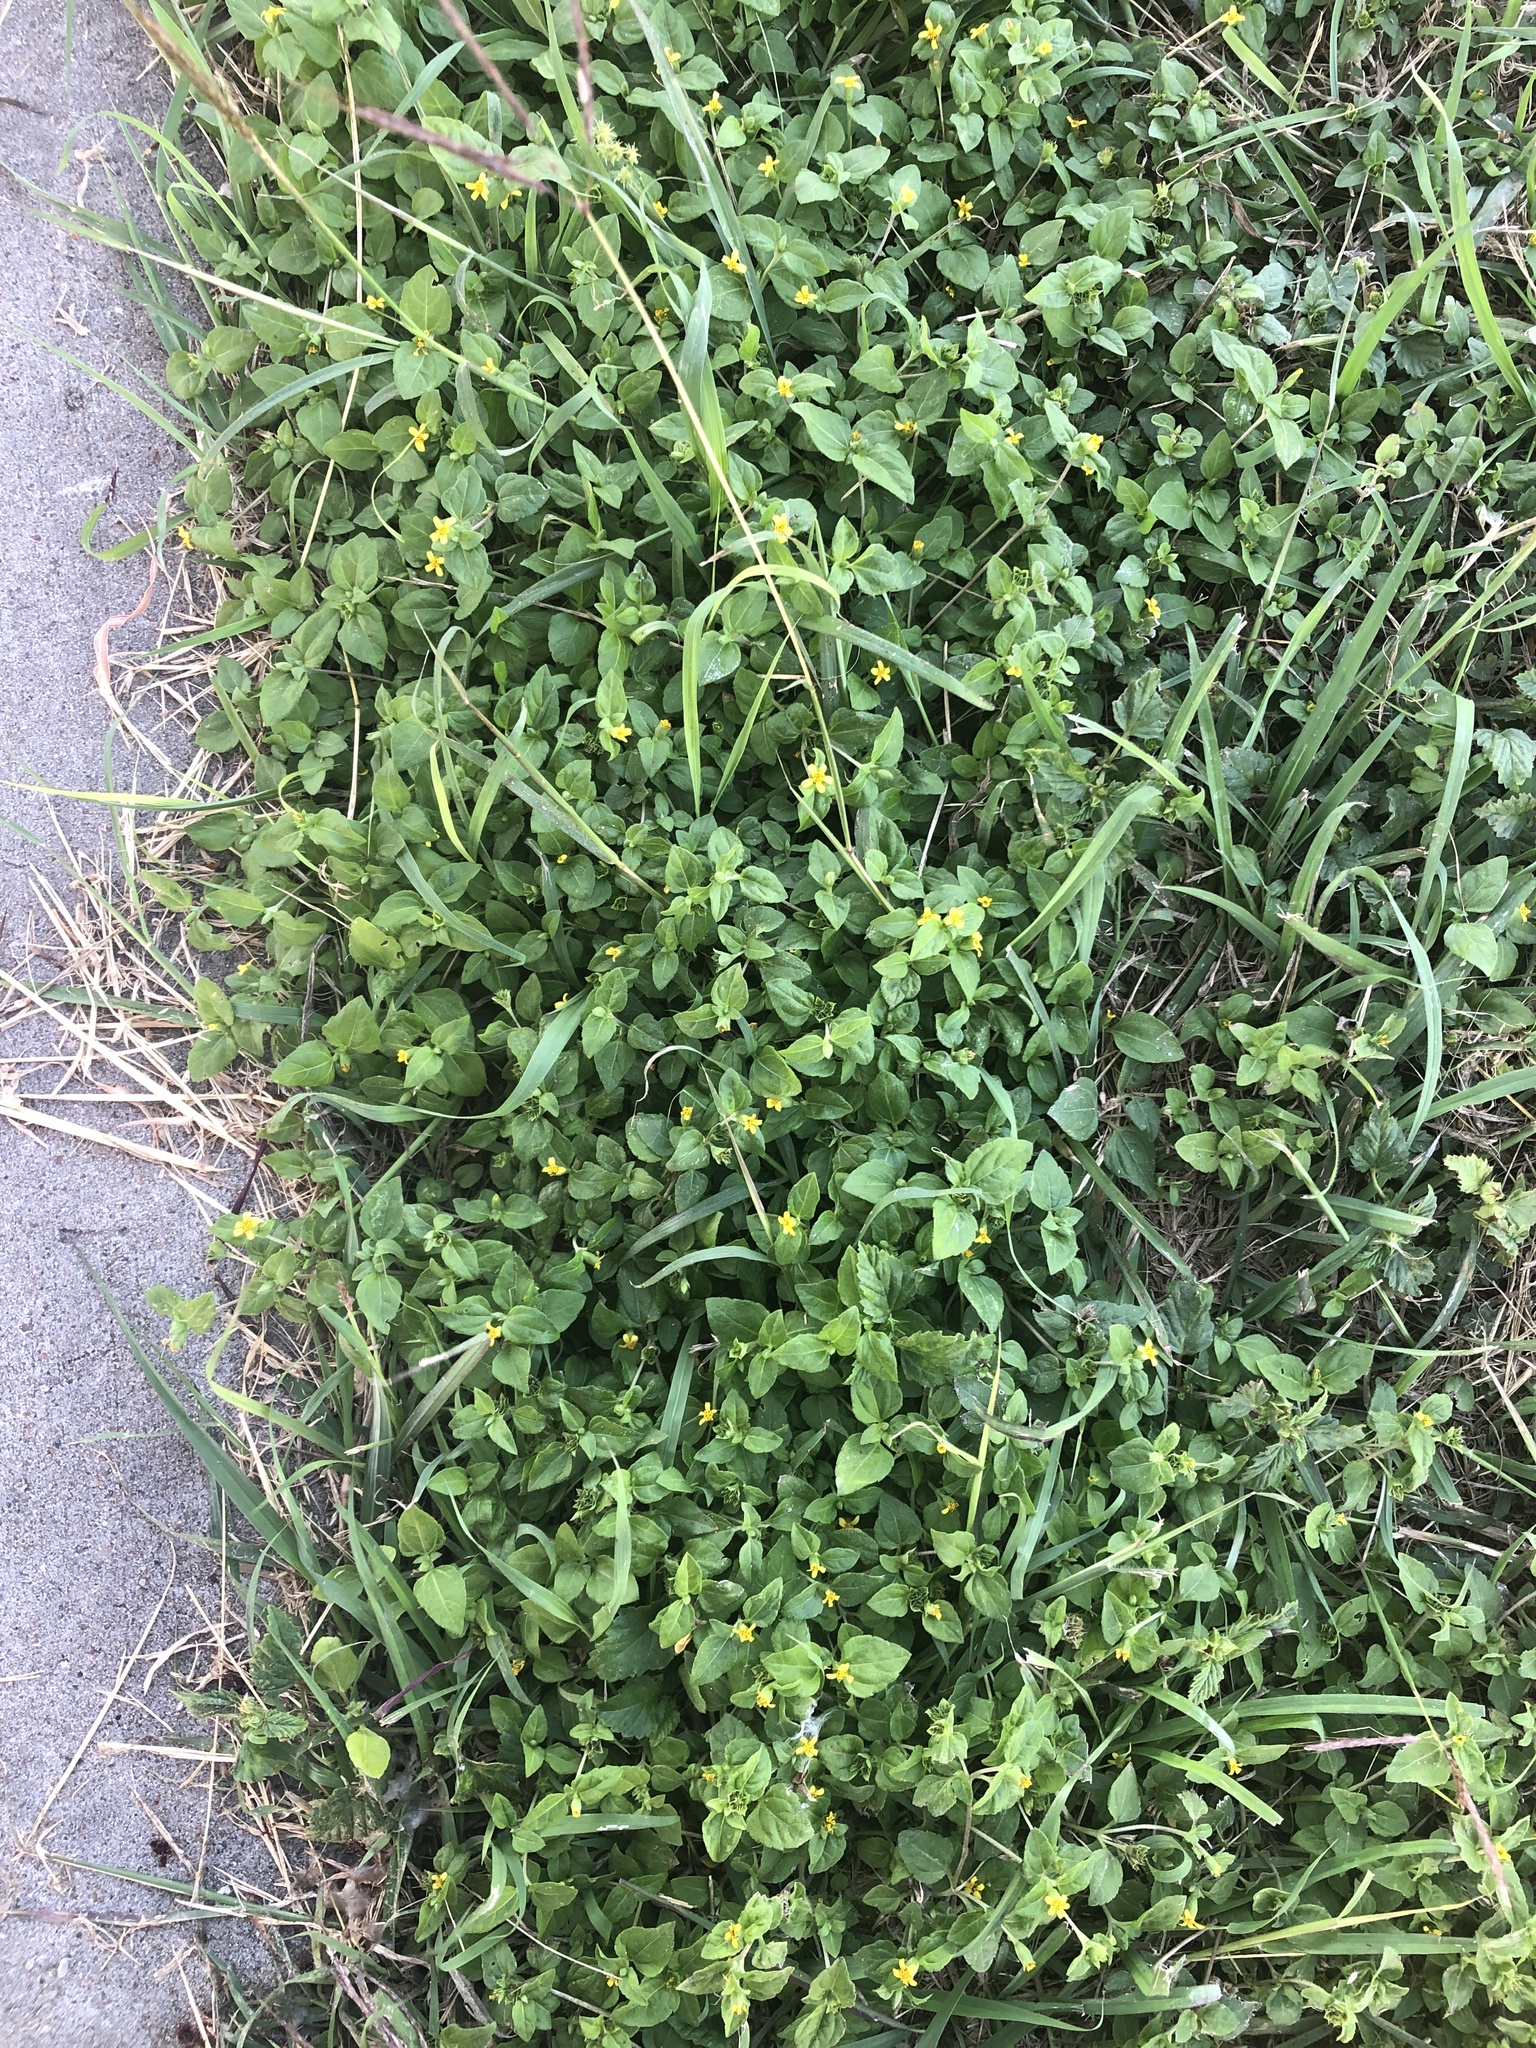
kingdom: Plantae
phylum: Tracheophyta
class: Magnoliopsida
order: Asterales
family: Asteraceae
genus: Calyptocarpus
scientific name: Calyptocarpus vialis
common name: Straggler daisy
